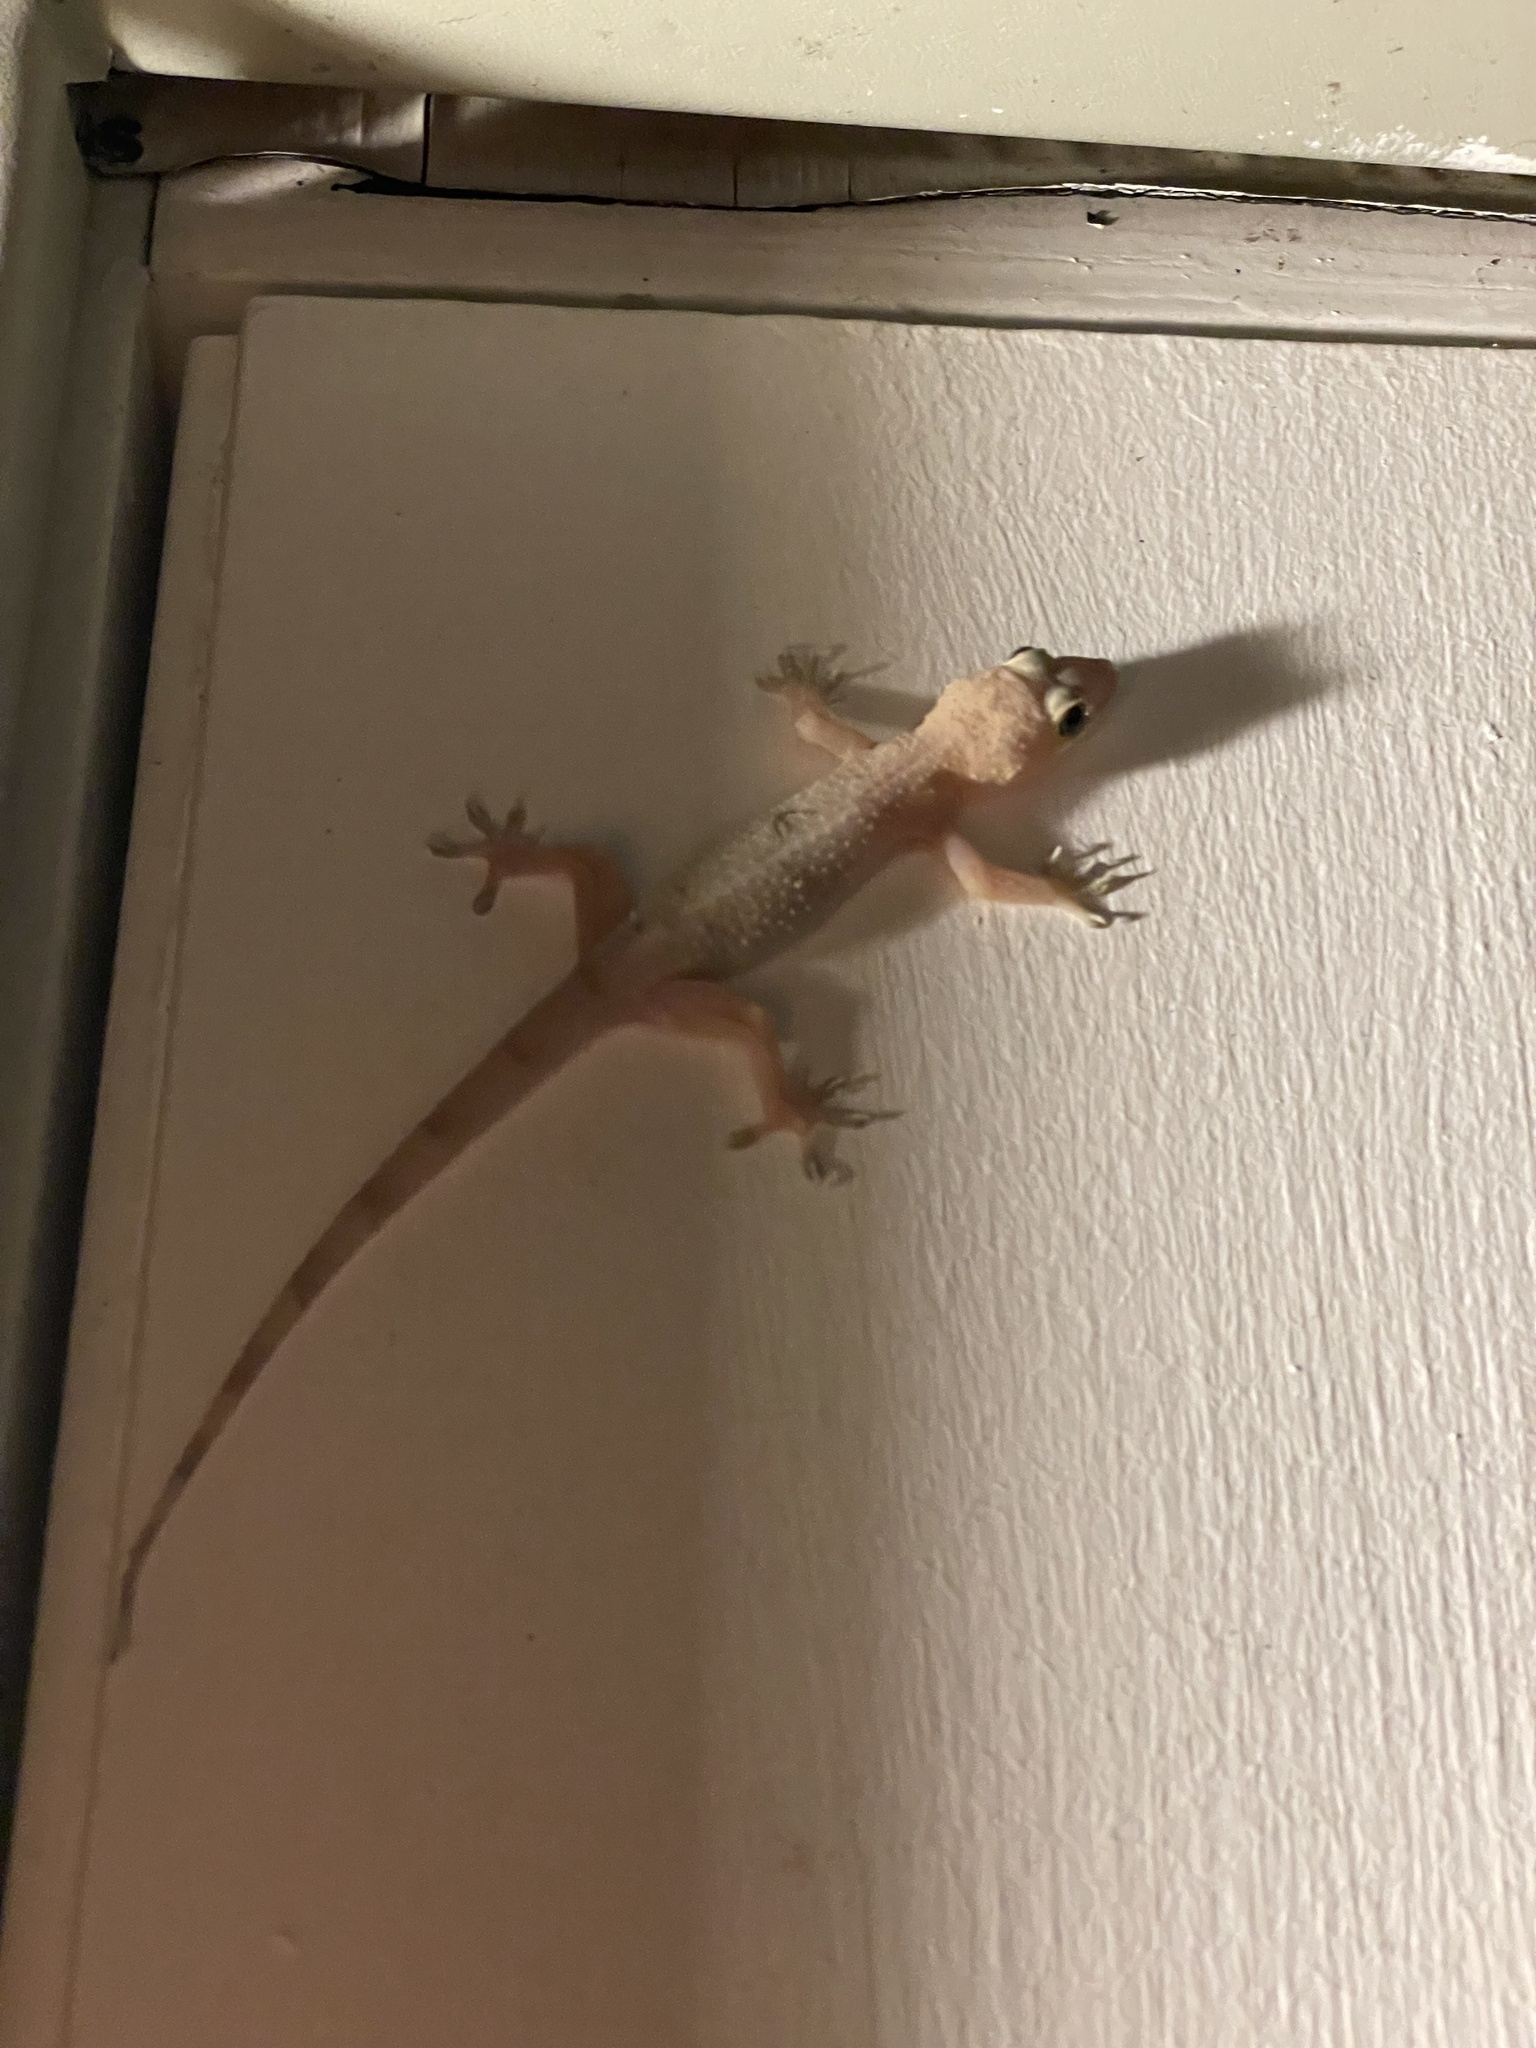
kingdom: Animalia
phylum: Chordata
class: Squamata
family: Gekkonidae
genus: Hemidactylus
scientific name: Hemidactylus mabouia
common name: House gecko
